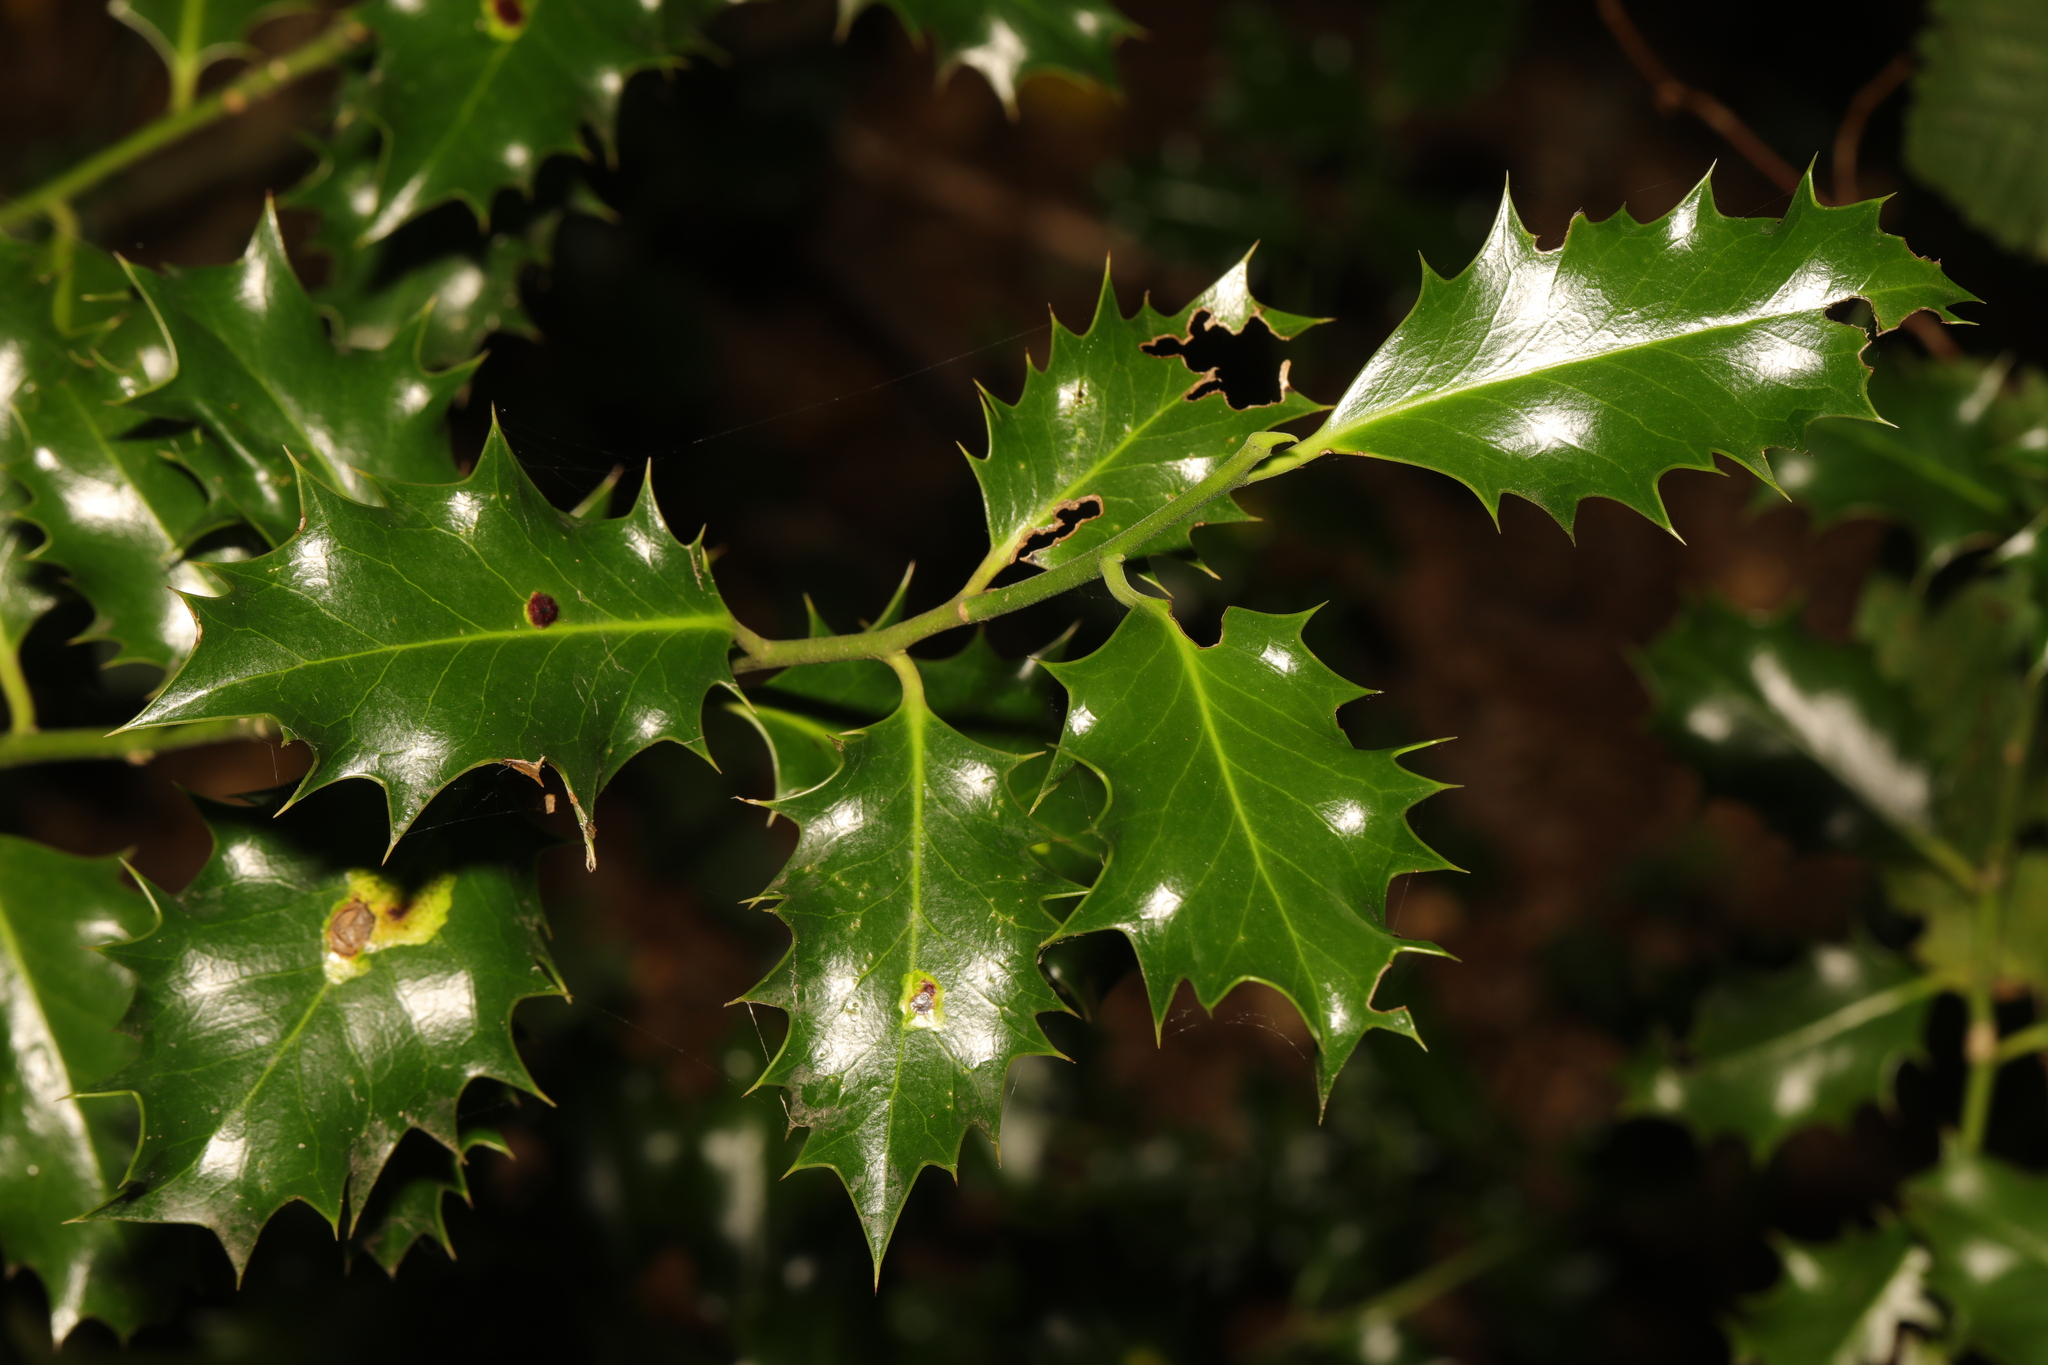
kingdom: Plantae
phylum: Tracheophyta
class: Magnoliopsida
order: Aquifoliales
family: Aquifoliaceae
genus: Ilex
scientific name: Ilex aquifolium
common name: English holly
